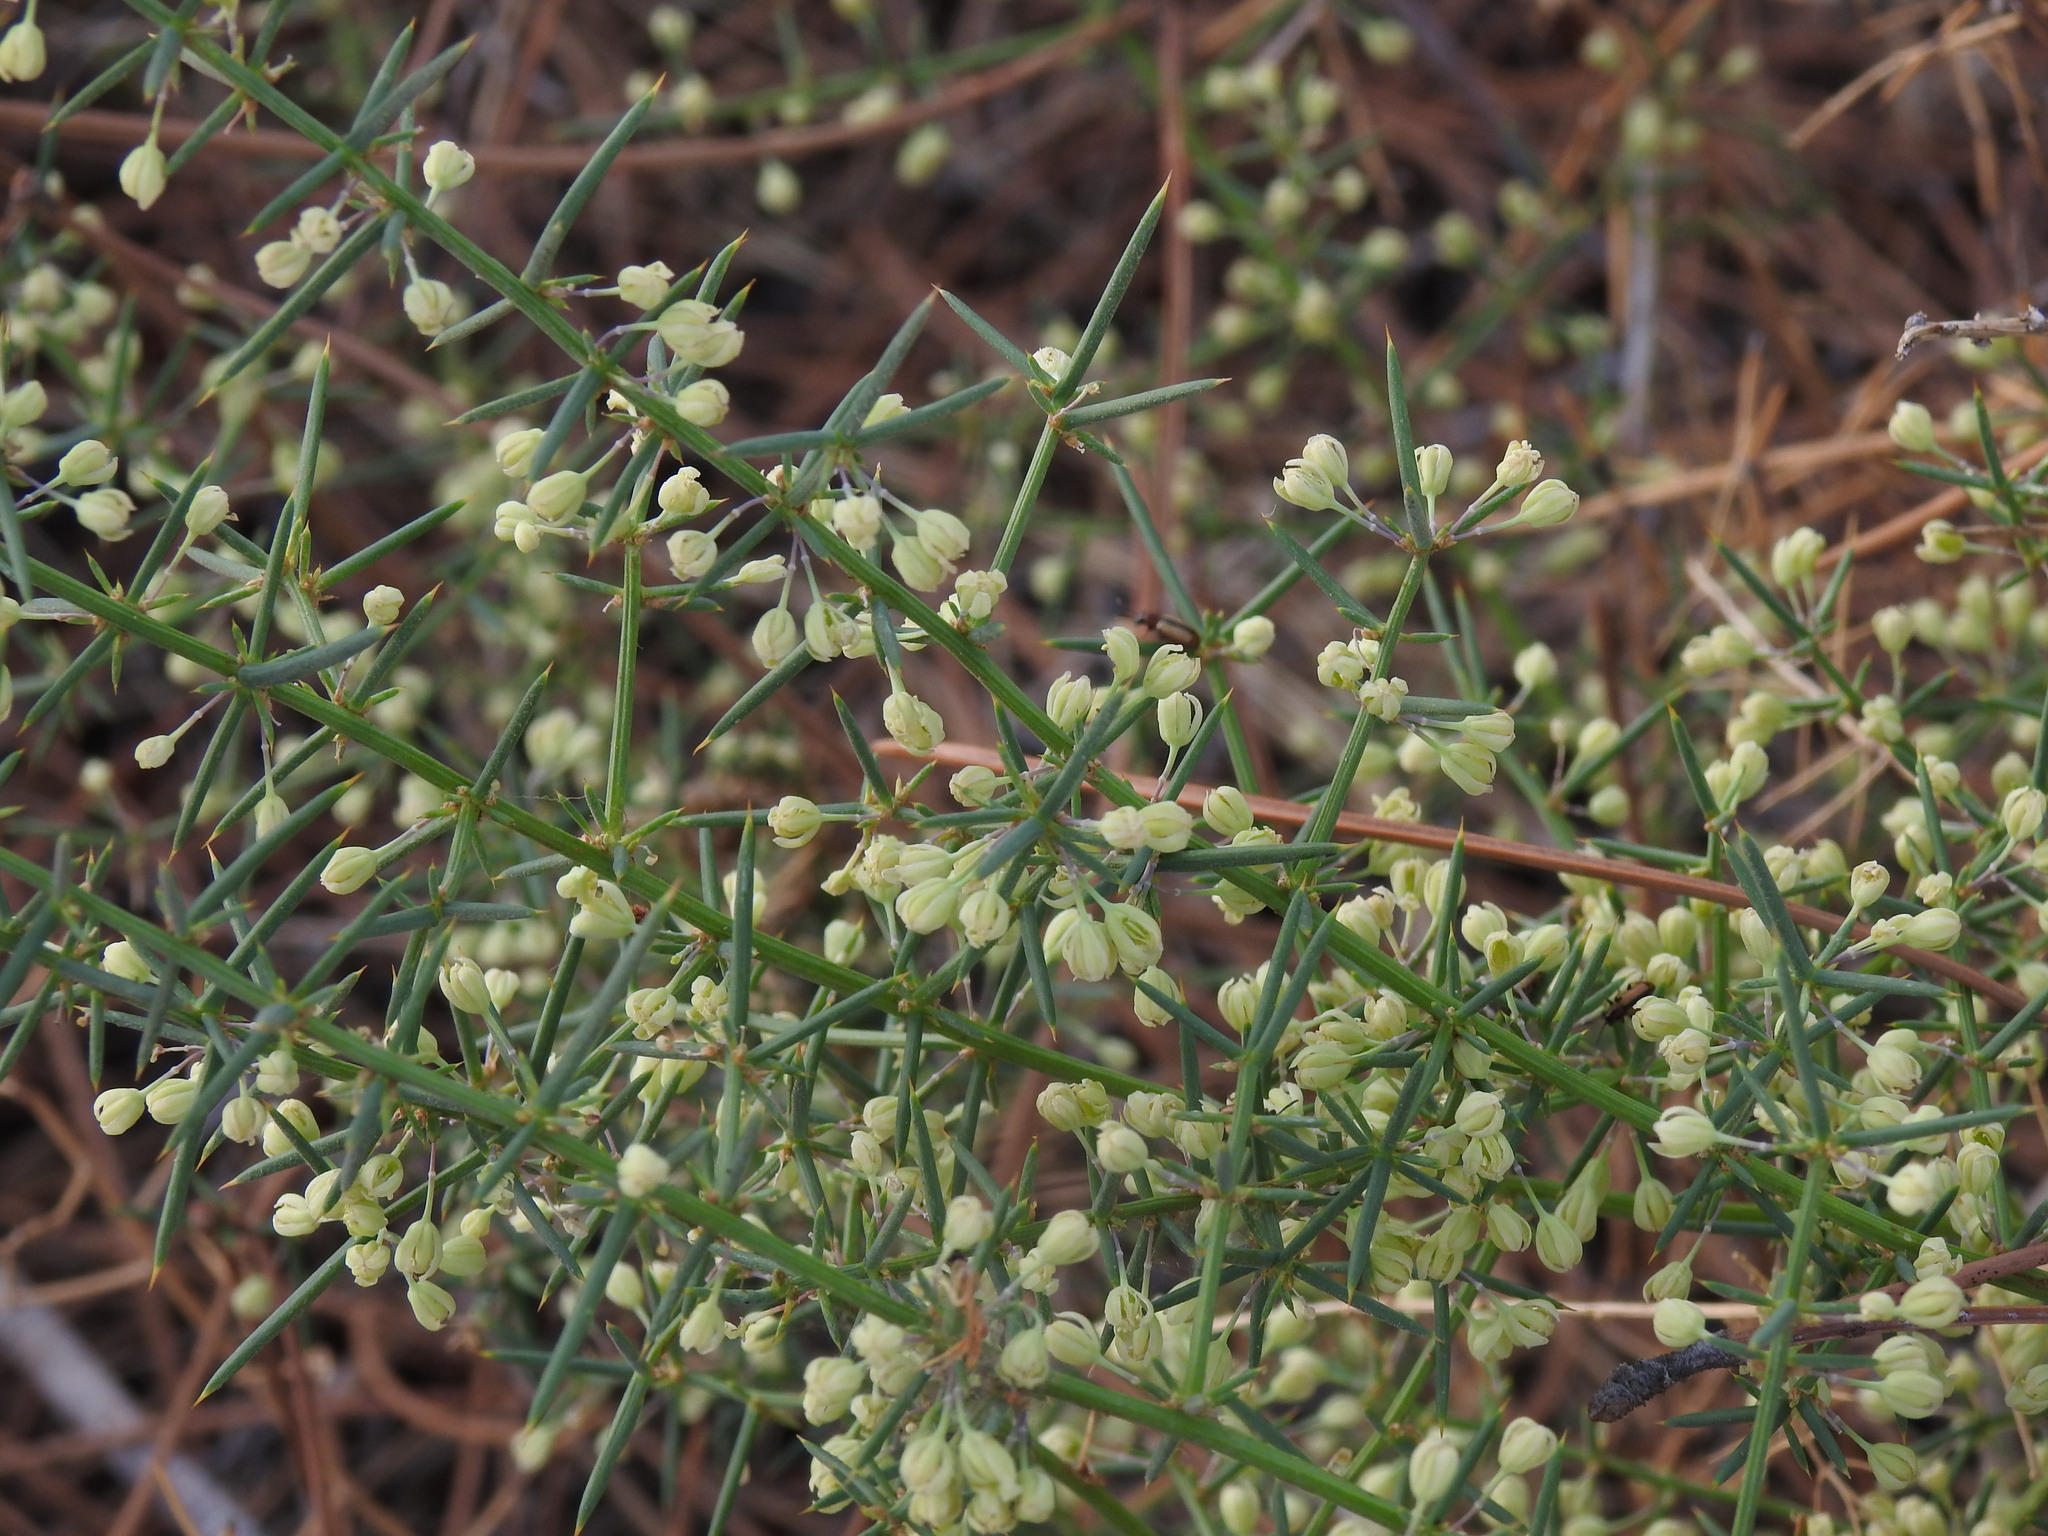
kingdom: Plantae
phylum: Tracheophyta
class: Liliopsida
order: Asparagales
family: Asparagaceae
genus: Asparagus
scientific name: Asparagus aphyllus
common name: Mediterranean asparagus
